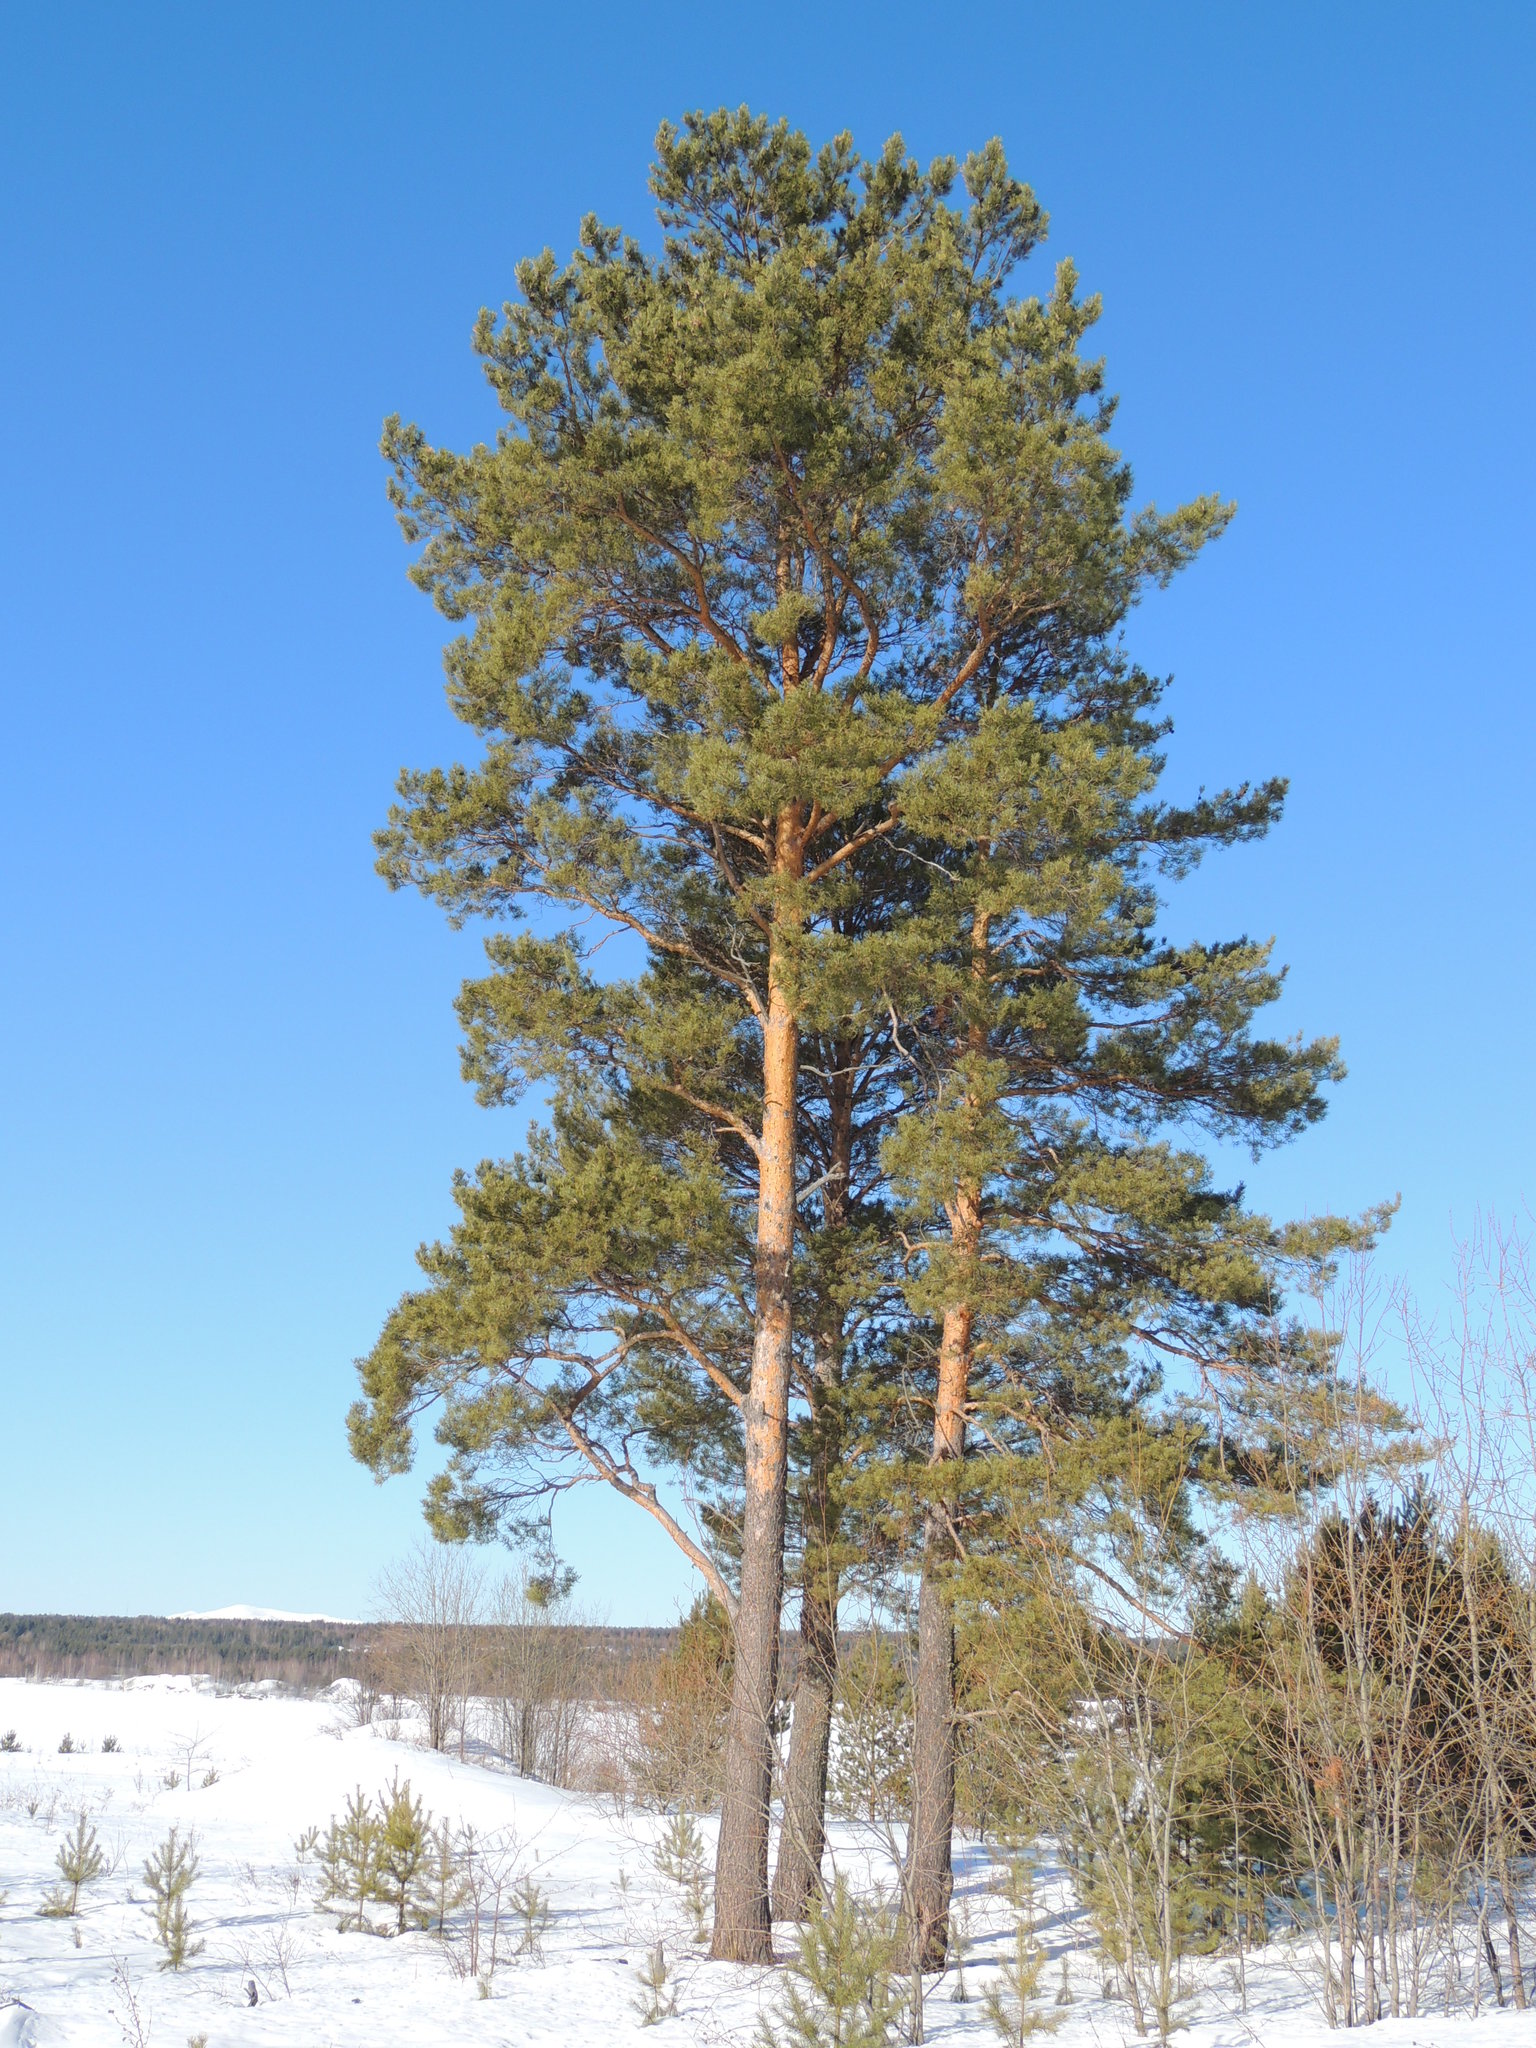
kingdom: Plantae
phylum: Tracheophyta
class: Pinopsida
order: Pinales
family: Pinaceae
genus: Pinus
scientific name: Pinus sylvestris
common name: Scots pine
